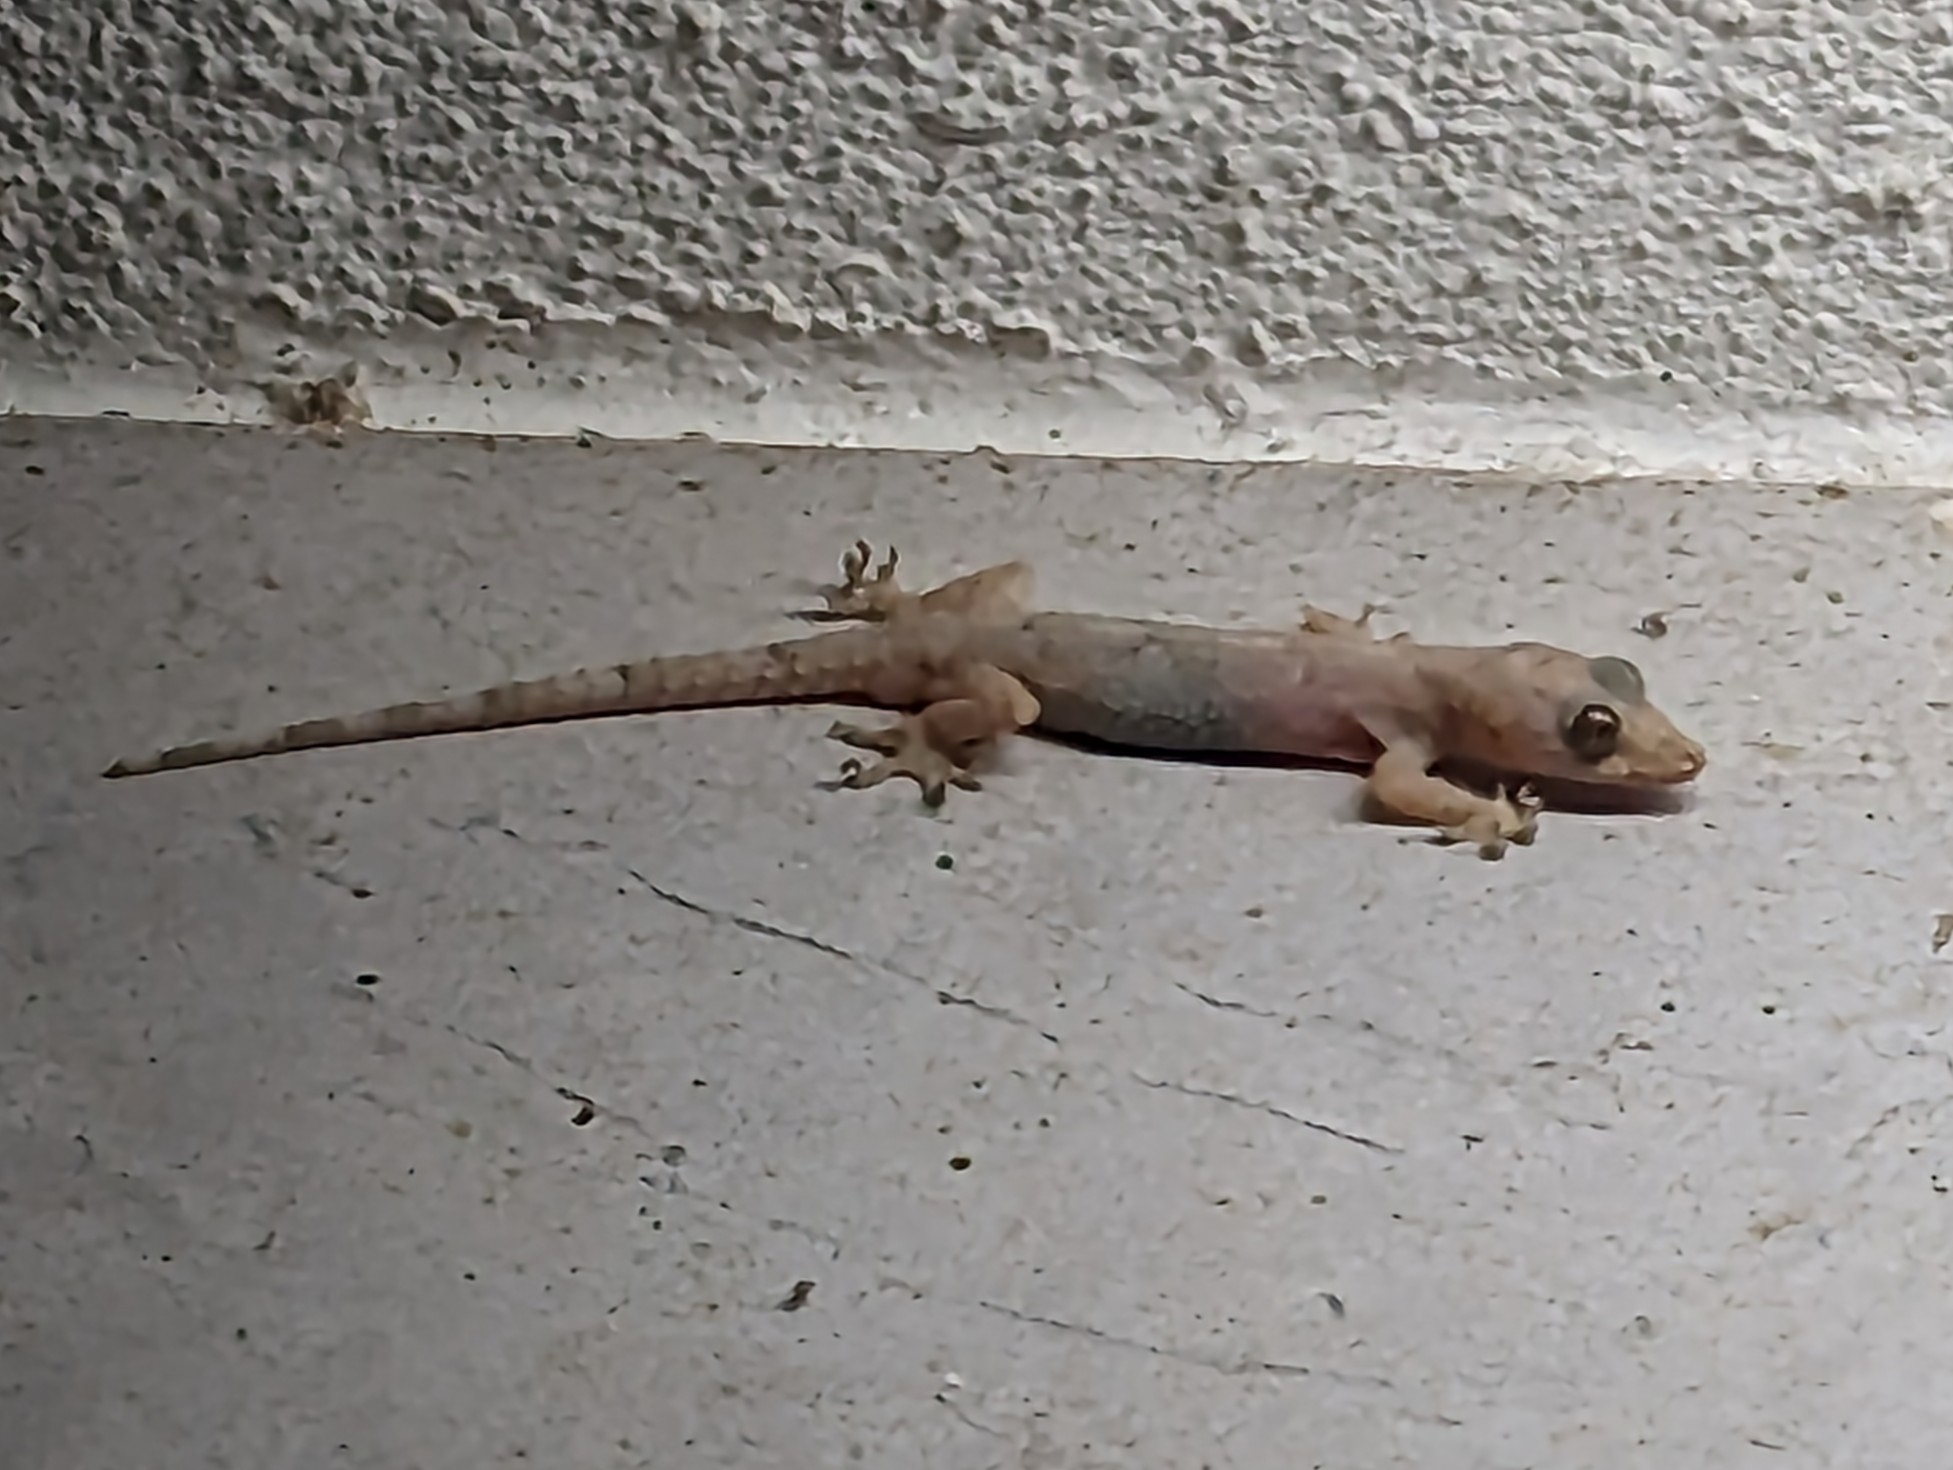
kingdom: Animalia
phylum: Chordata
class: Squamata
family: Gekkonidae
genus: Hemidactylus
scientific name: Hemidactylus mabouia
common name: House gecko
